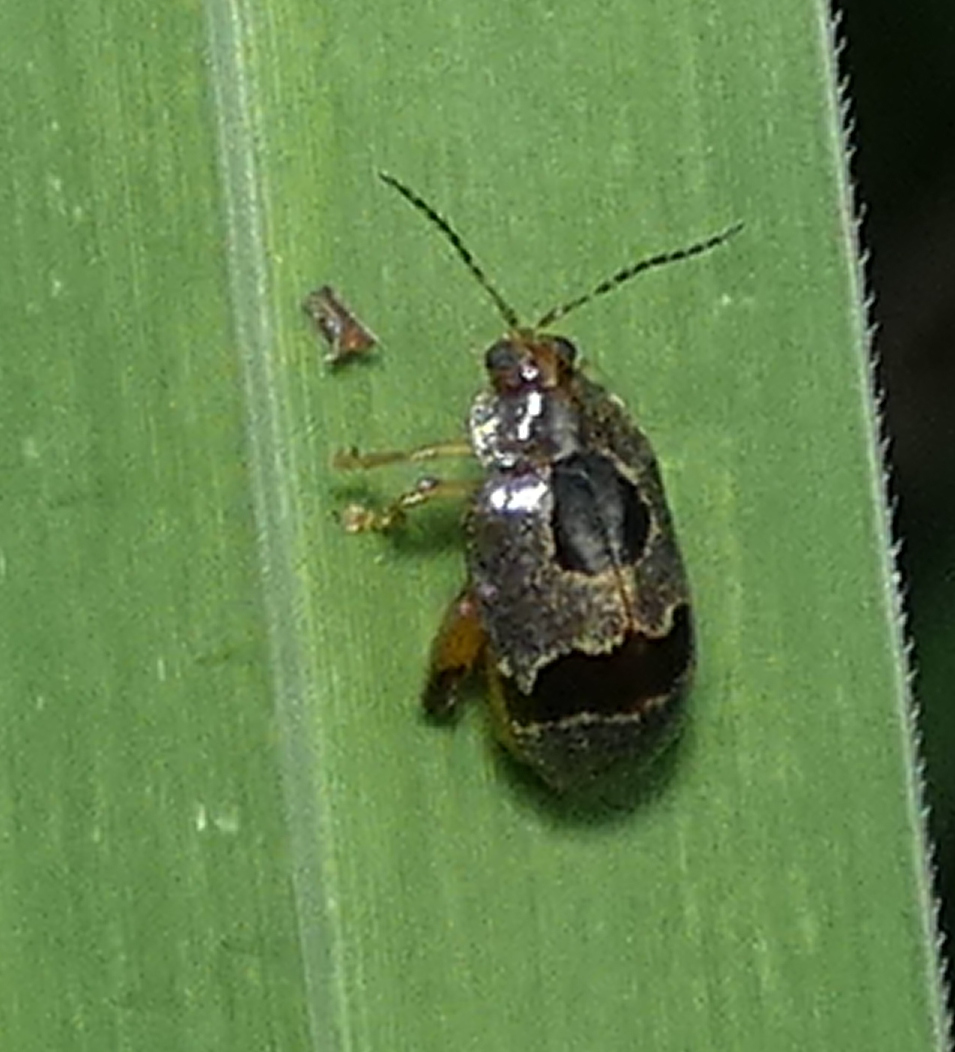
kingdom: Animalia
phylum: Arthropoda
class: Insecta
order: Coleoptera
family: Chrysomelidae
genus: Alagoasa
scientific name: Alagoasa
